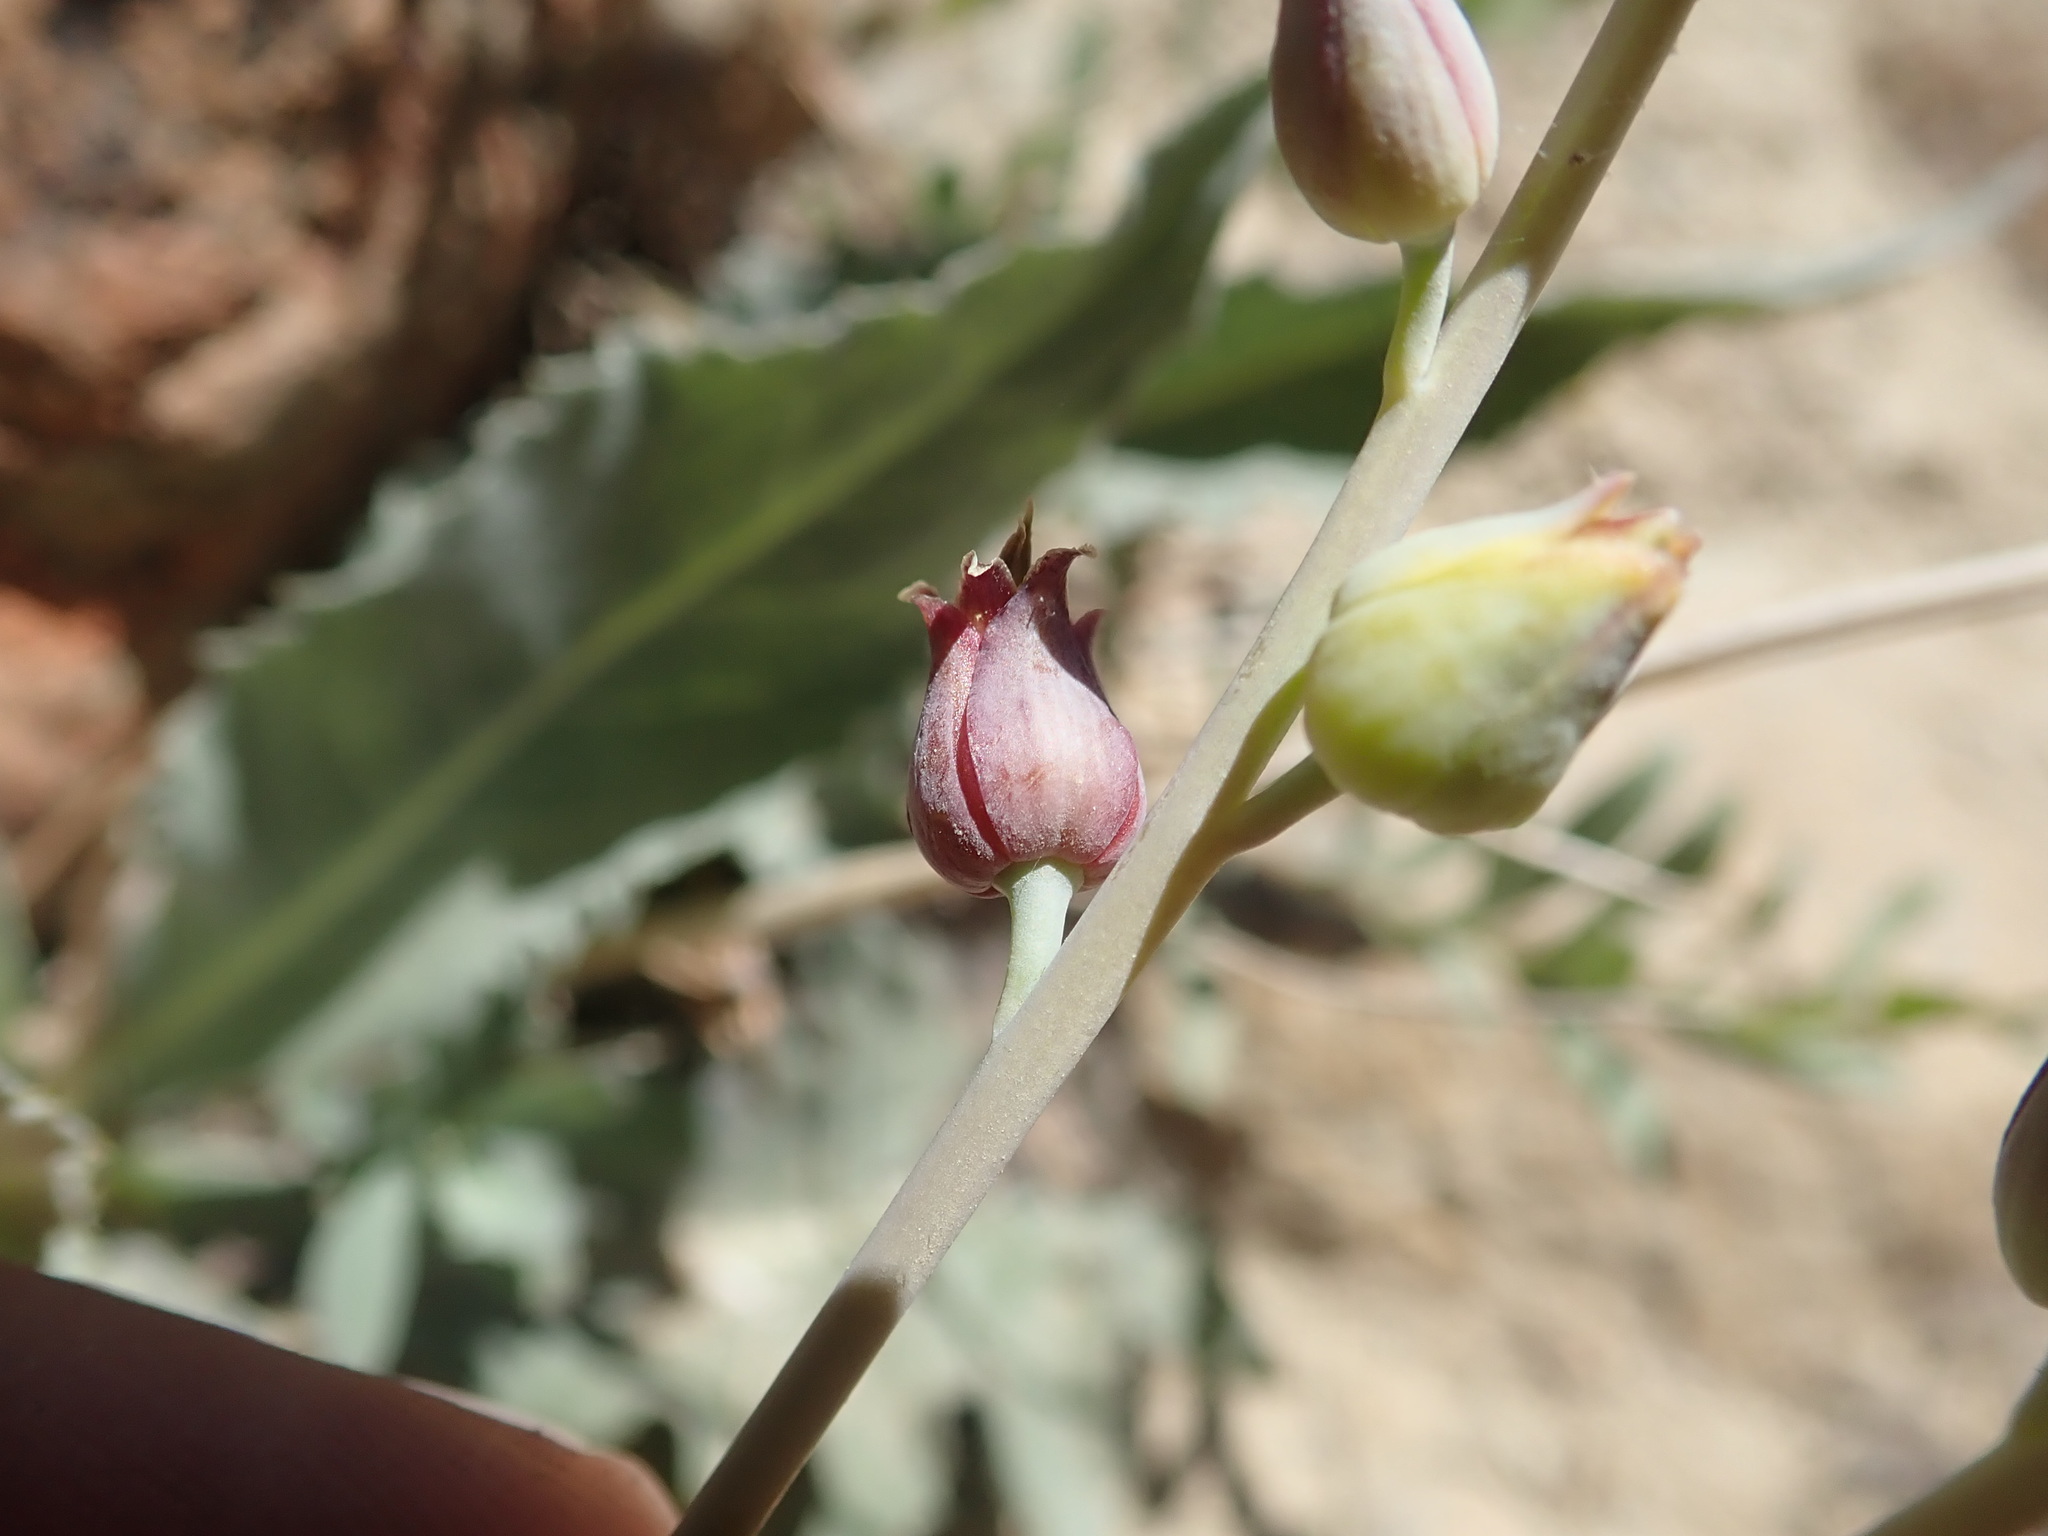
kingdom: Plantae
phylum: Tracheophyta
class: Magnoliopsida
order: Brassicales
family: Brassicaceae
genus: Streptanthus
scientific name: Streptanthus barbatus
